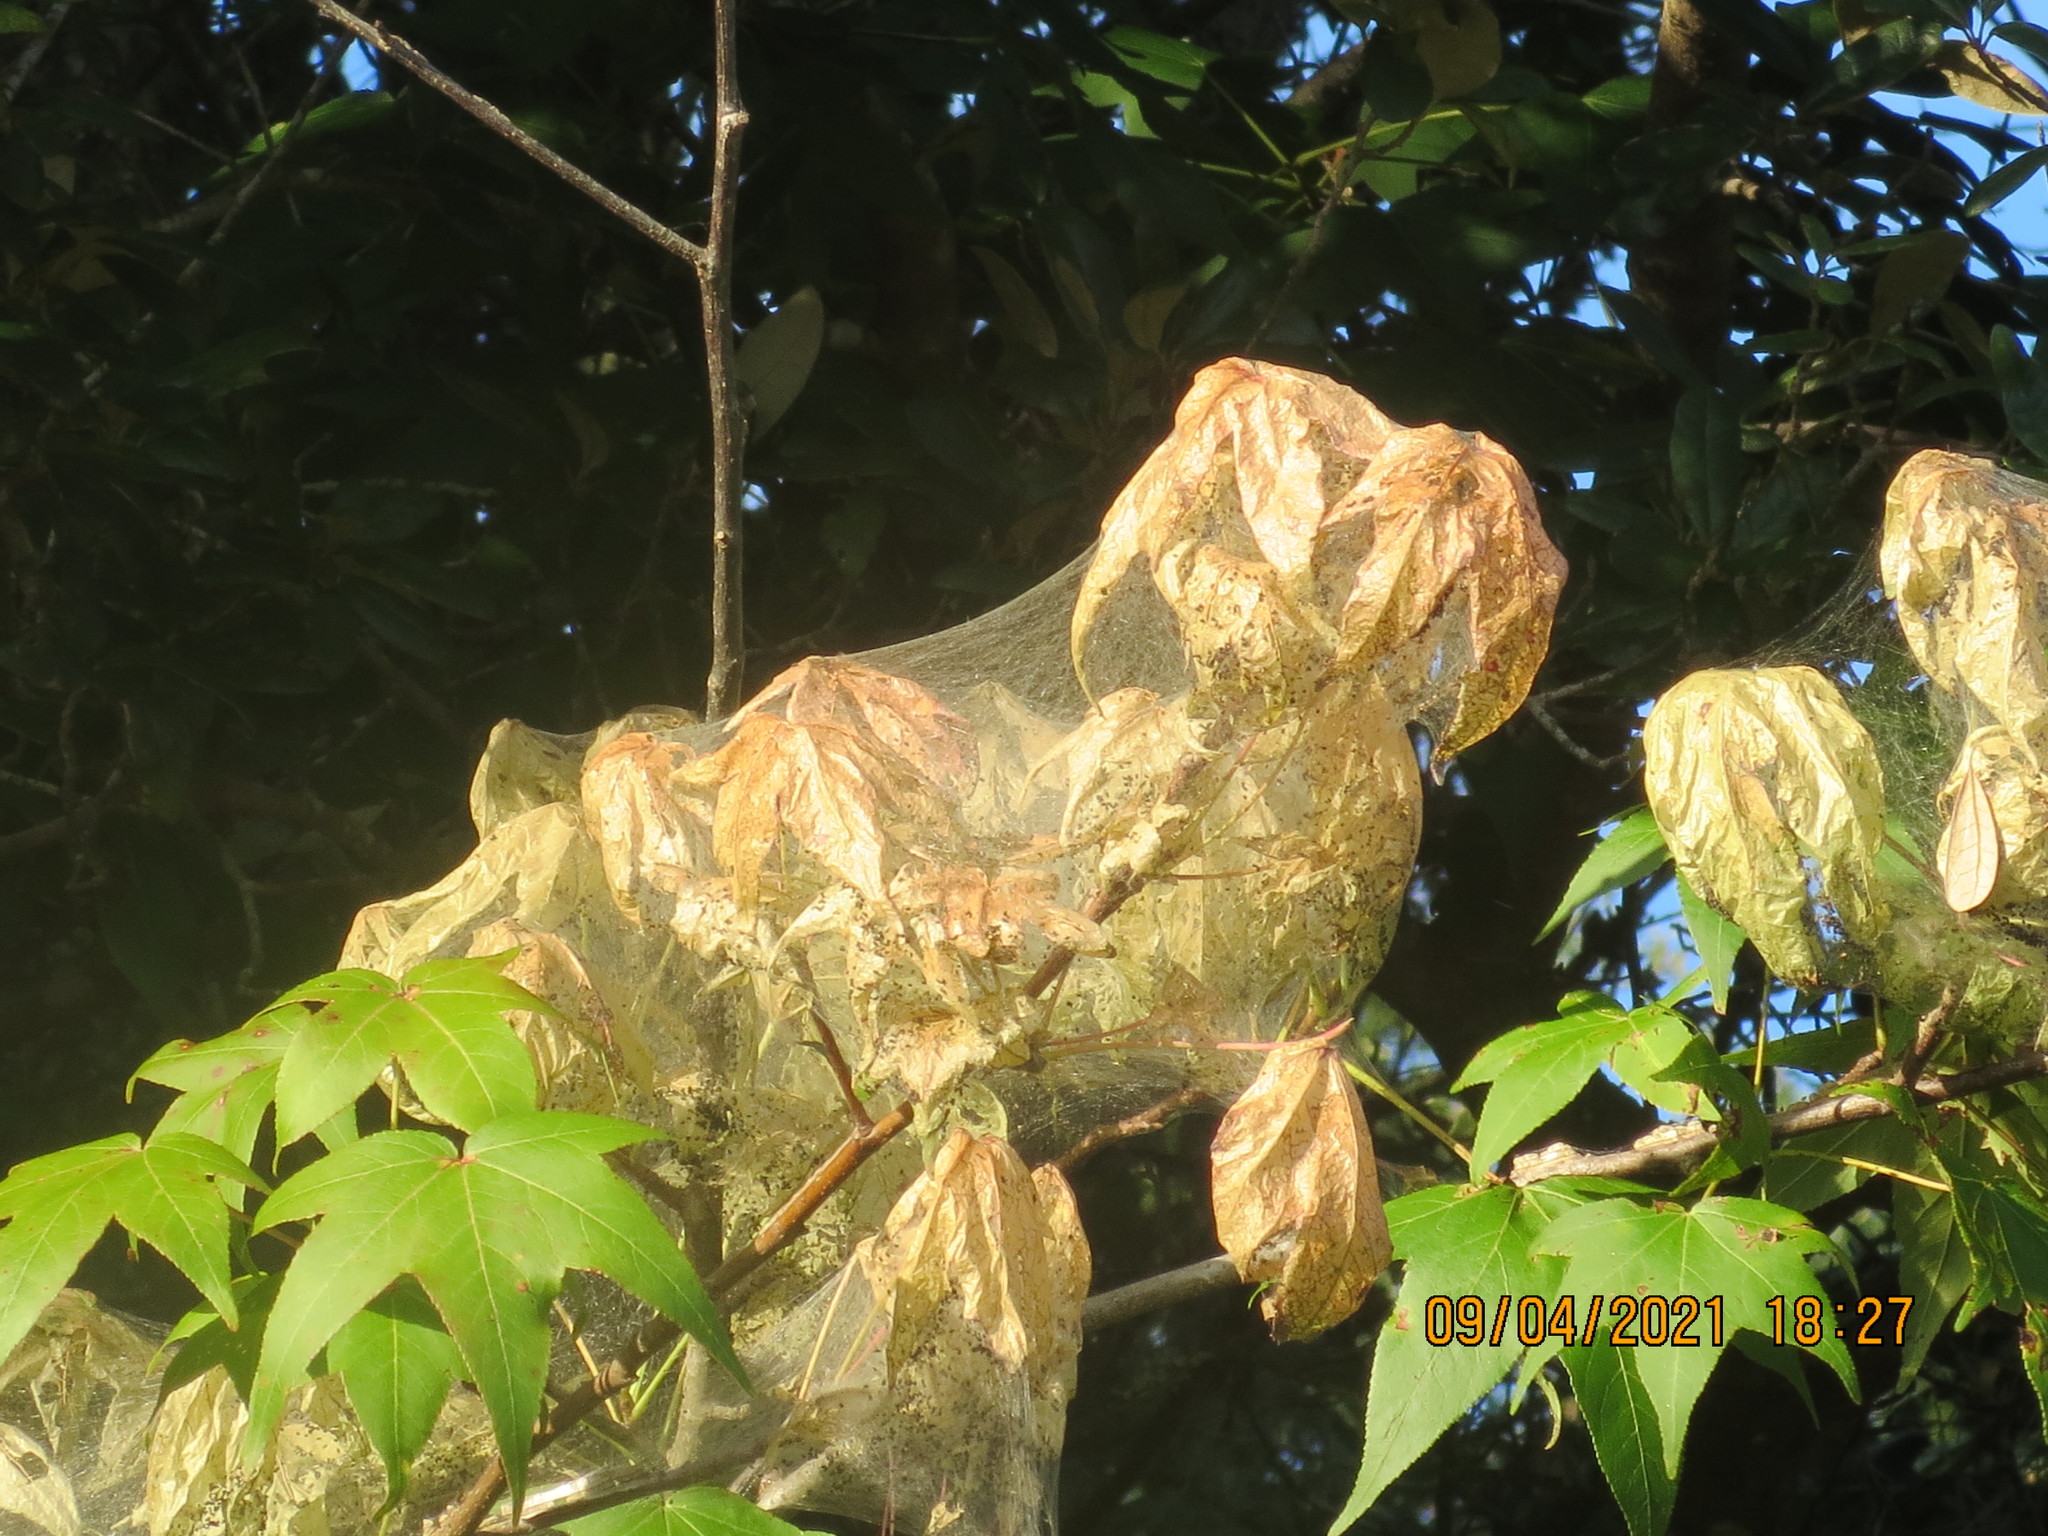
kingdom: Animalia
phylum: Arthropoda
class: Insecta
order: Lepidoptera
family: Erebidae
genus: Hyphantria
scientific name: Hyphantria cunea
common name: American white moth
